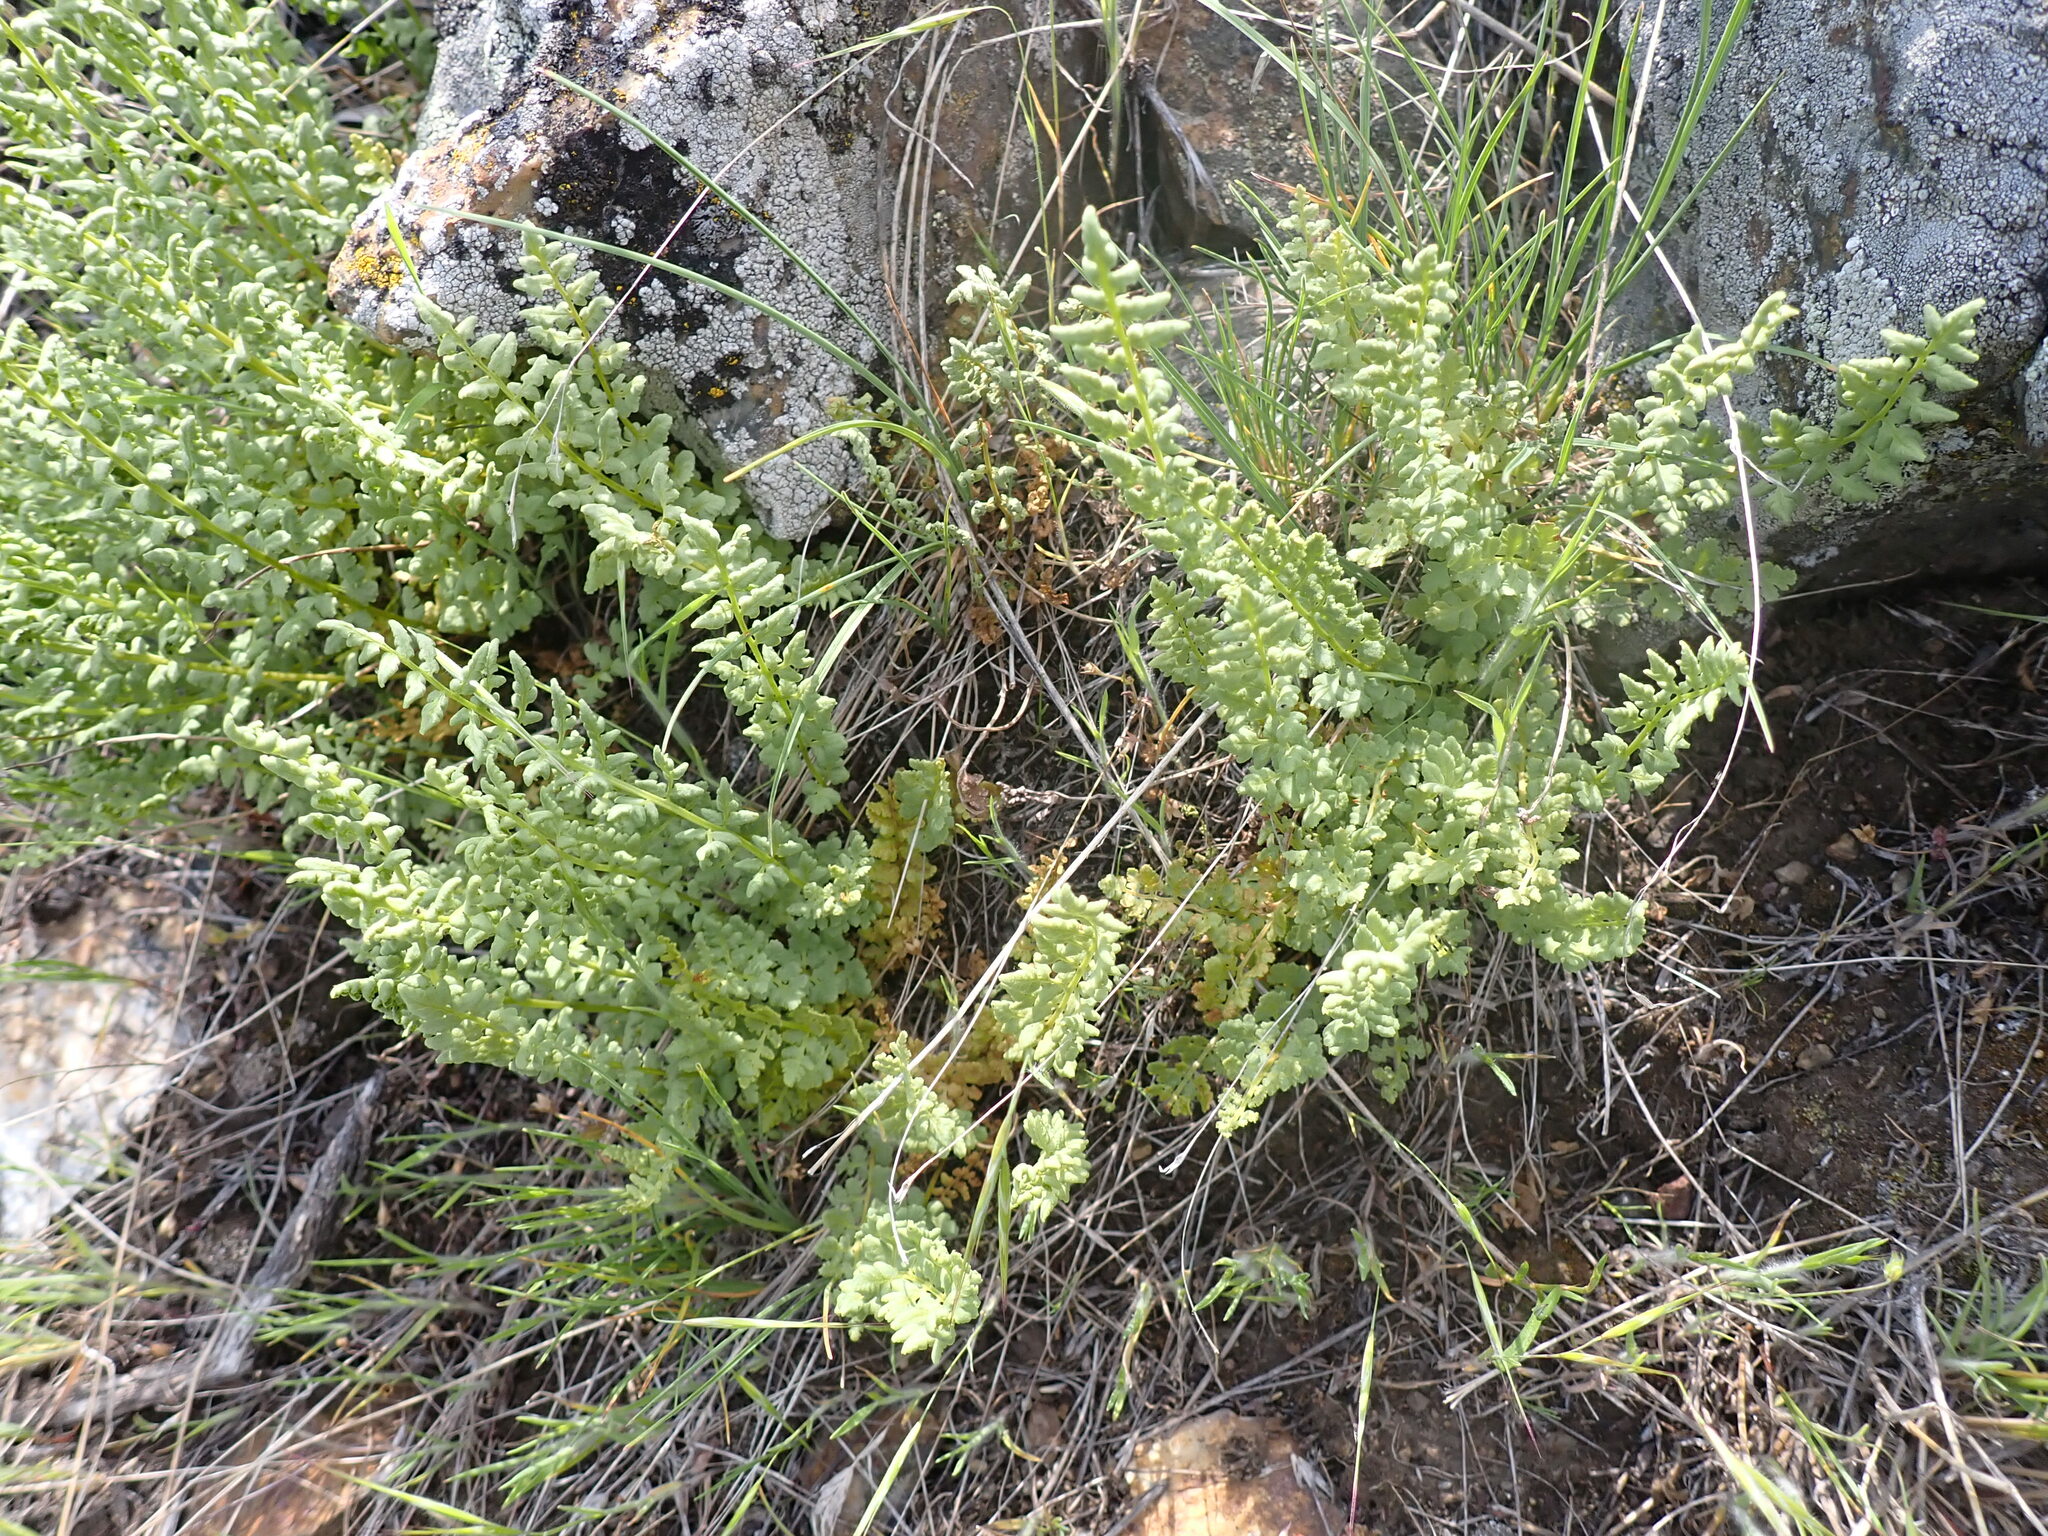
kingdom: Plantae
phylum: Tracheophyta
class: Polypodiopsida
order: Polypodiales
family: Woodsiaceae
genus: Physematium
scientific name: Physematium oreganum
